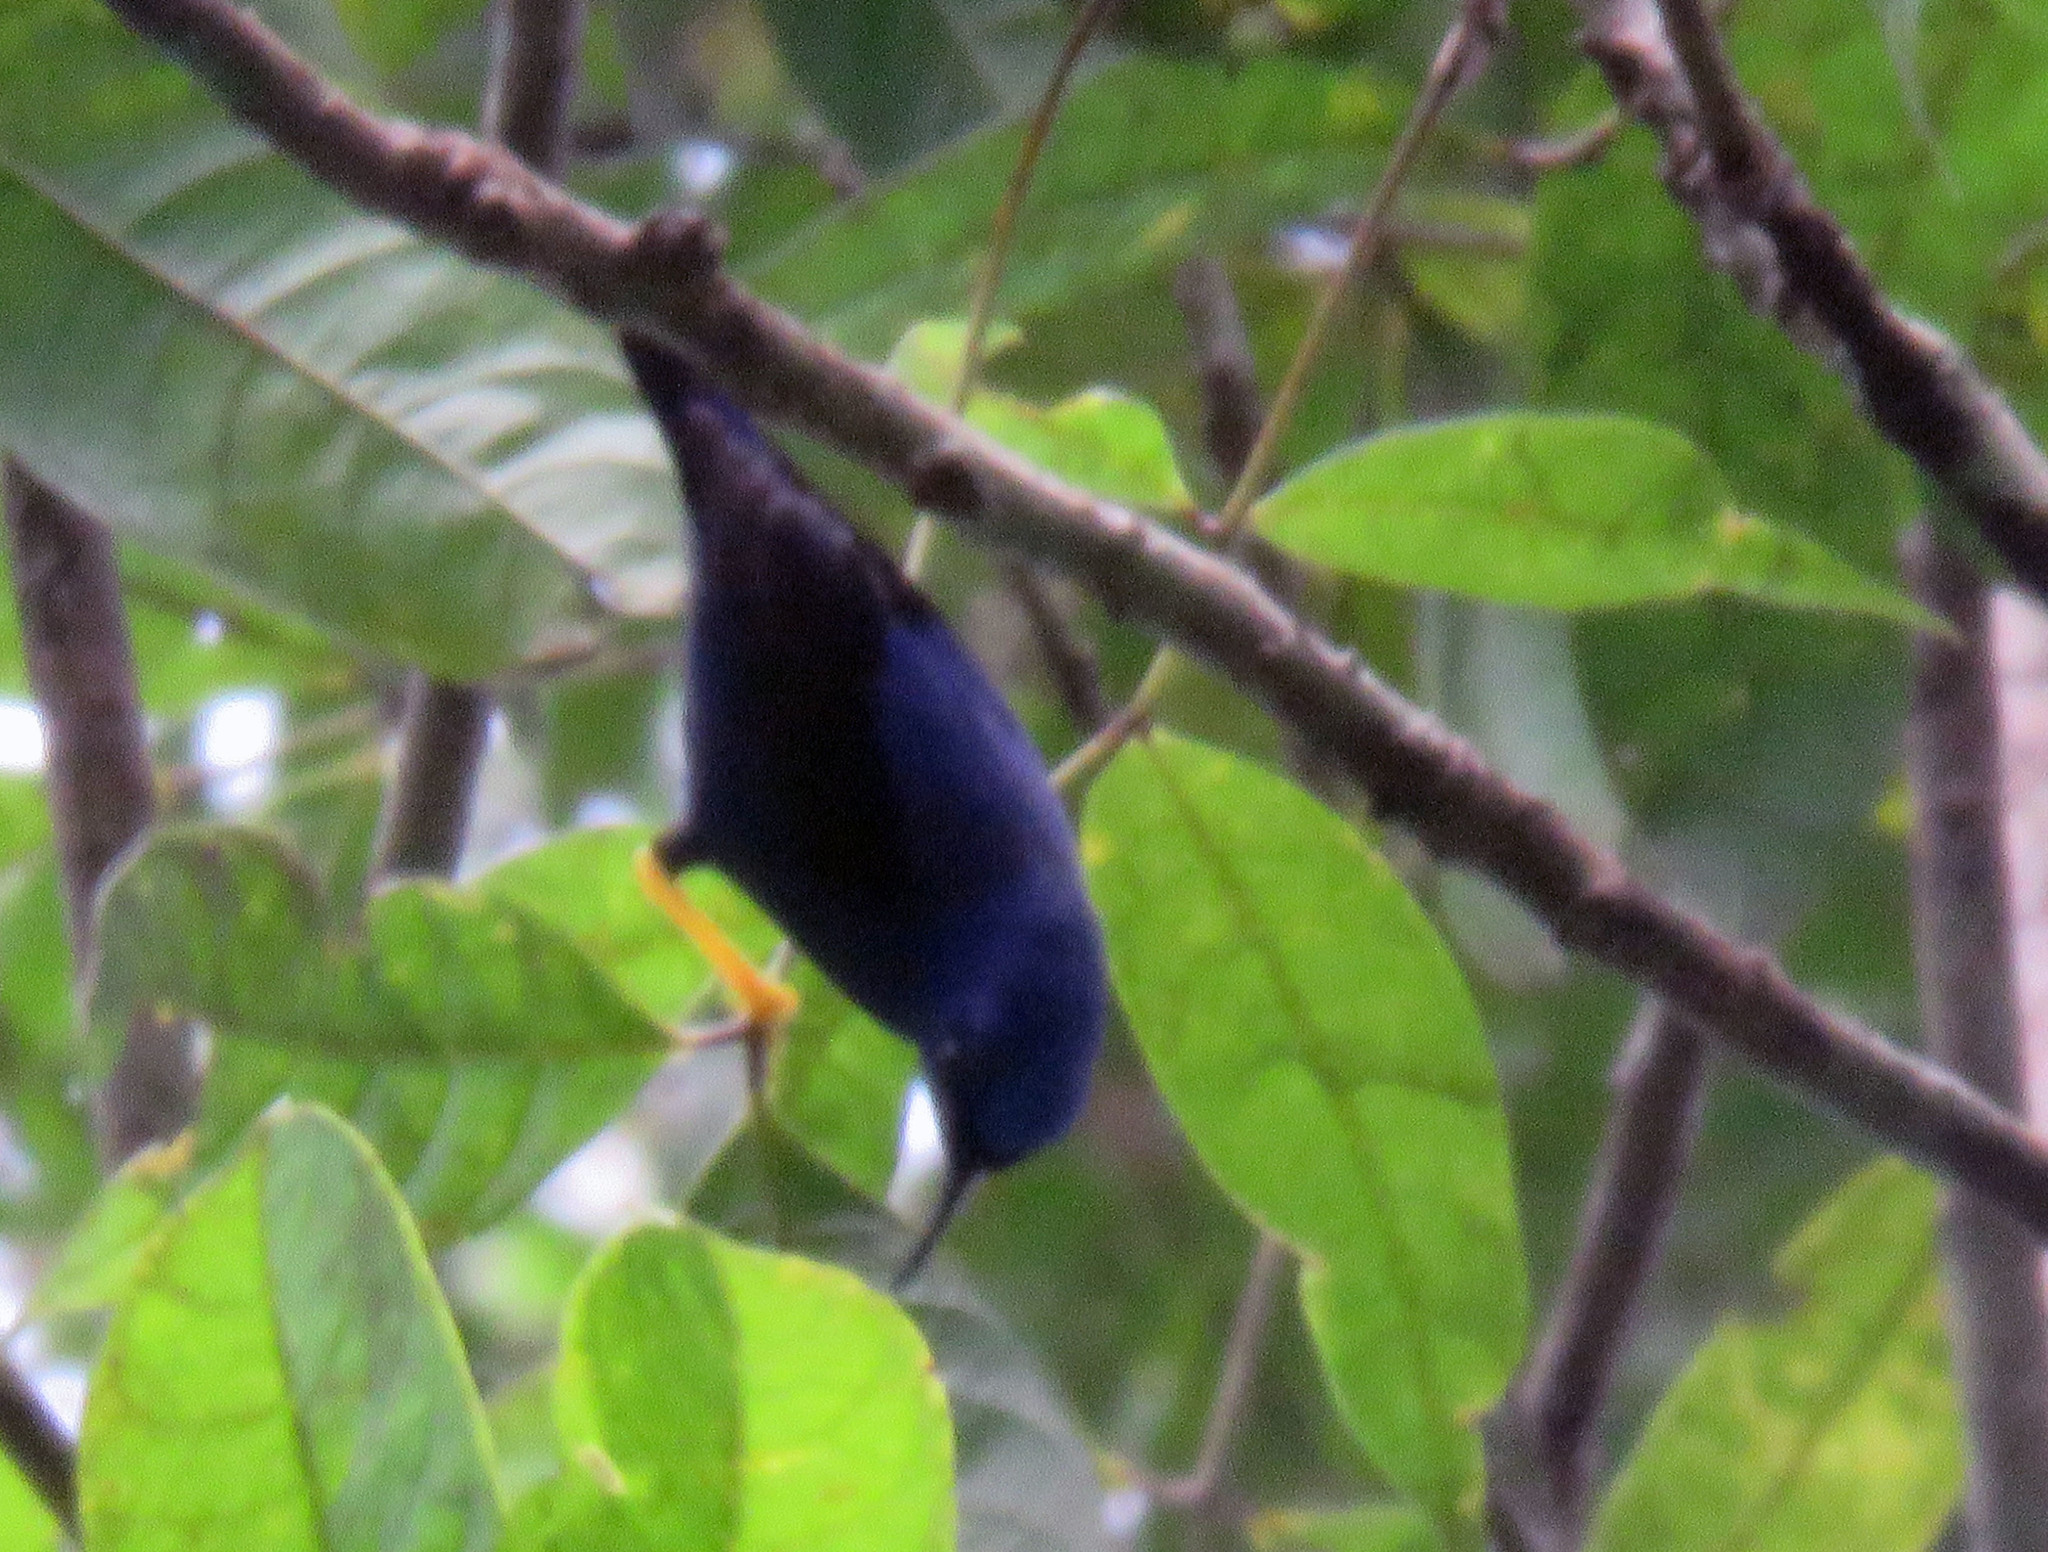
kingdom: Animalia
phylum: Chordata
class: Aves
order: Passeriformes
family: Thraupidae
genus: Cyanerpes
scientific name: Cyanerpes caeruleus
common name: Purple honeycreeper
